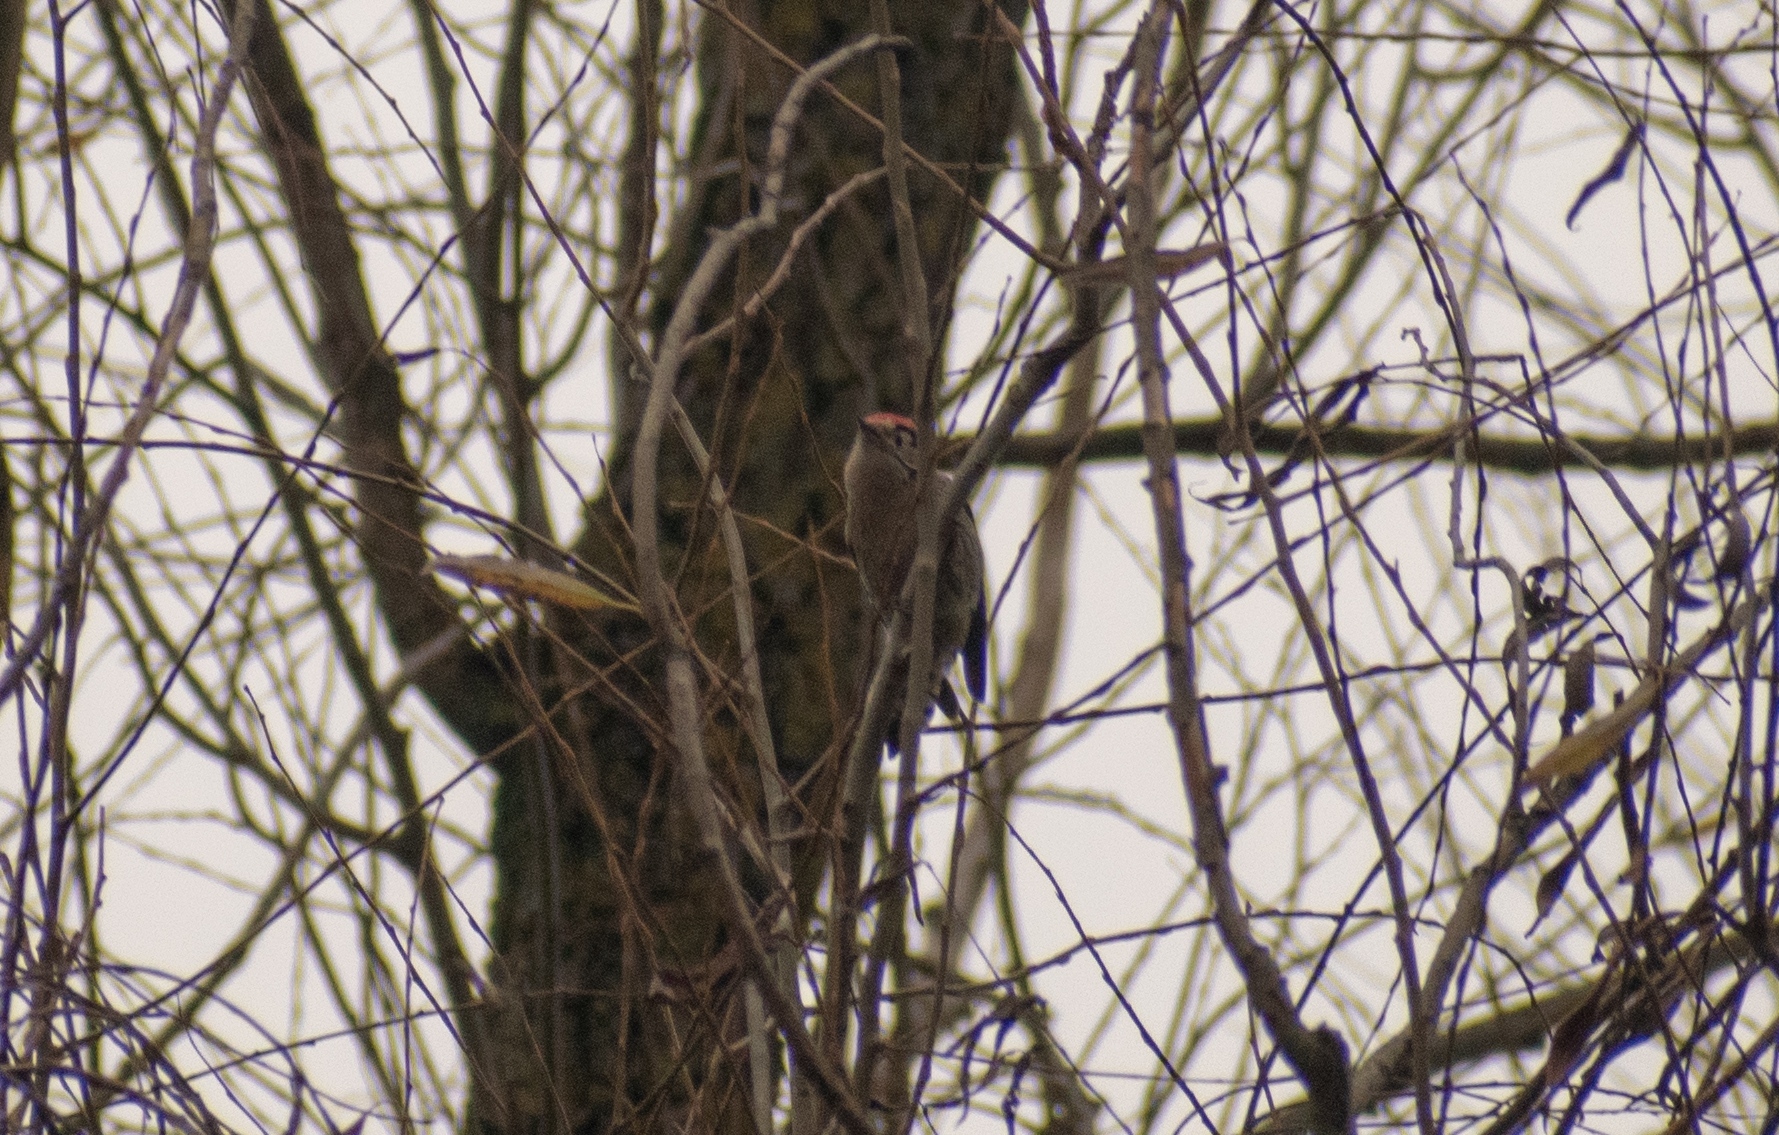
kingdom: Animalia
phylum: Chordata
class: Aves
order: Piciformes
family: Picidae
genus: Dryobates
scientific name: Dryobates minor
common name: Lesser spotted woodpecker
